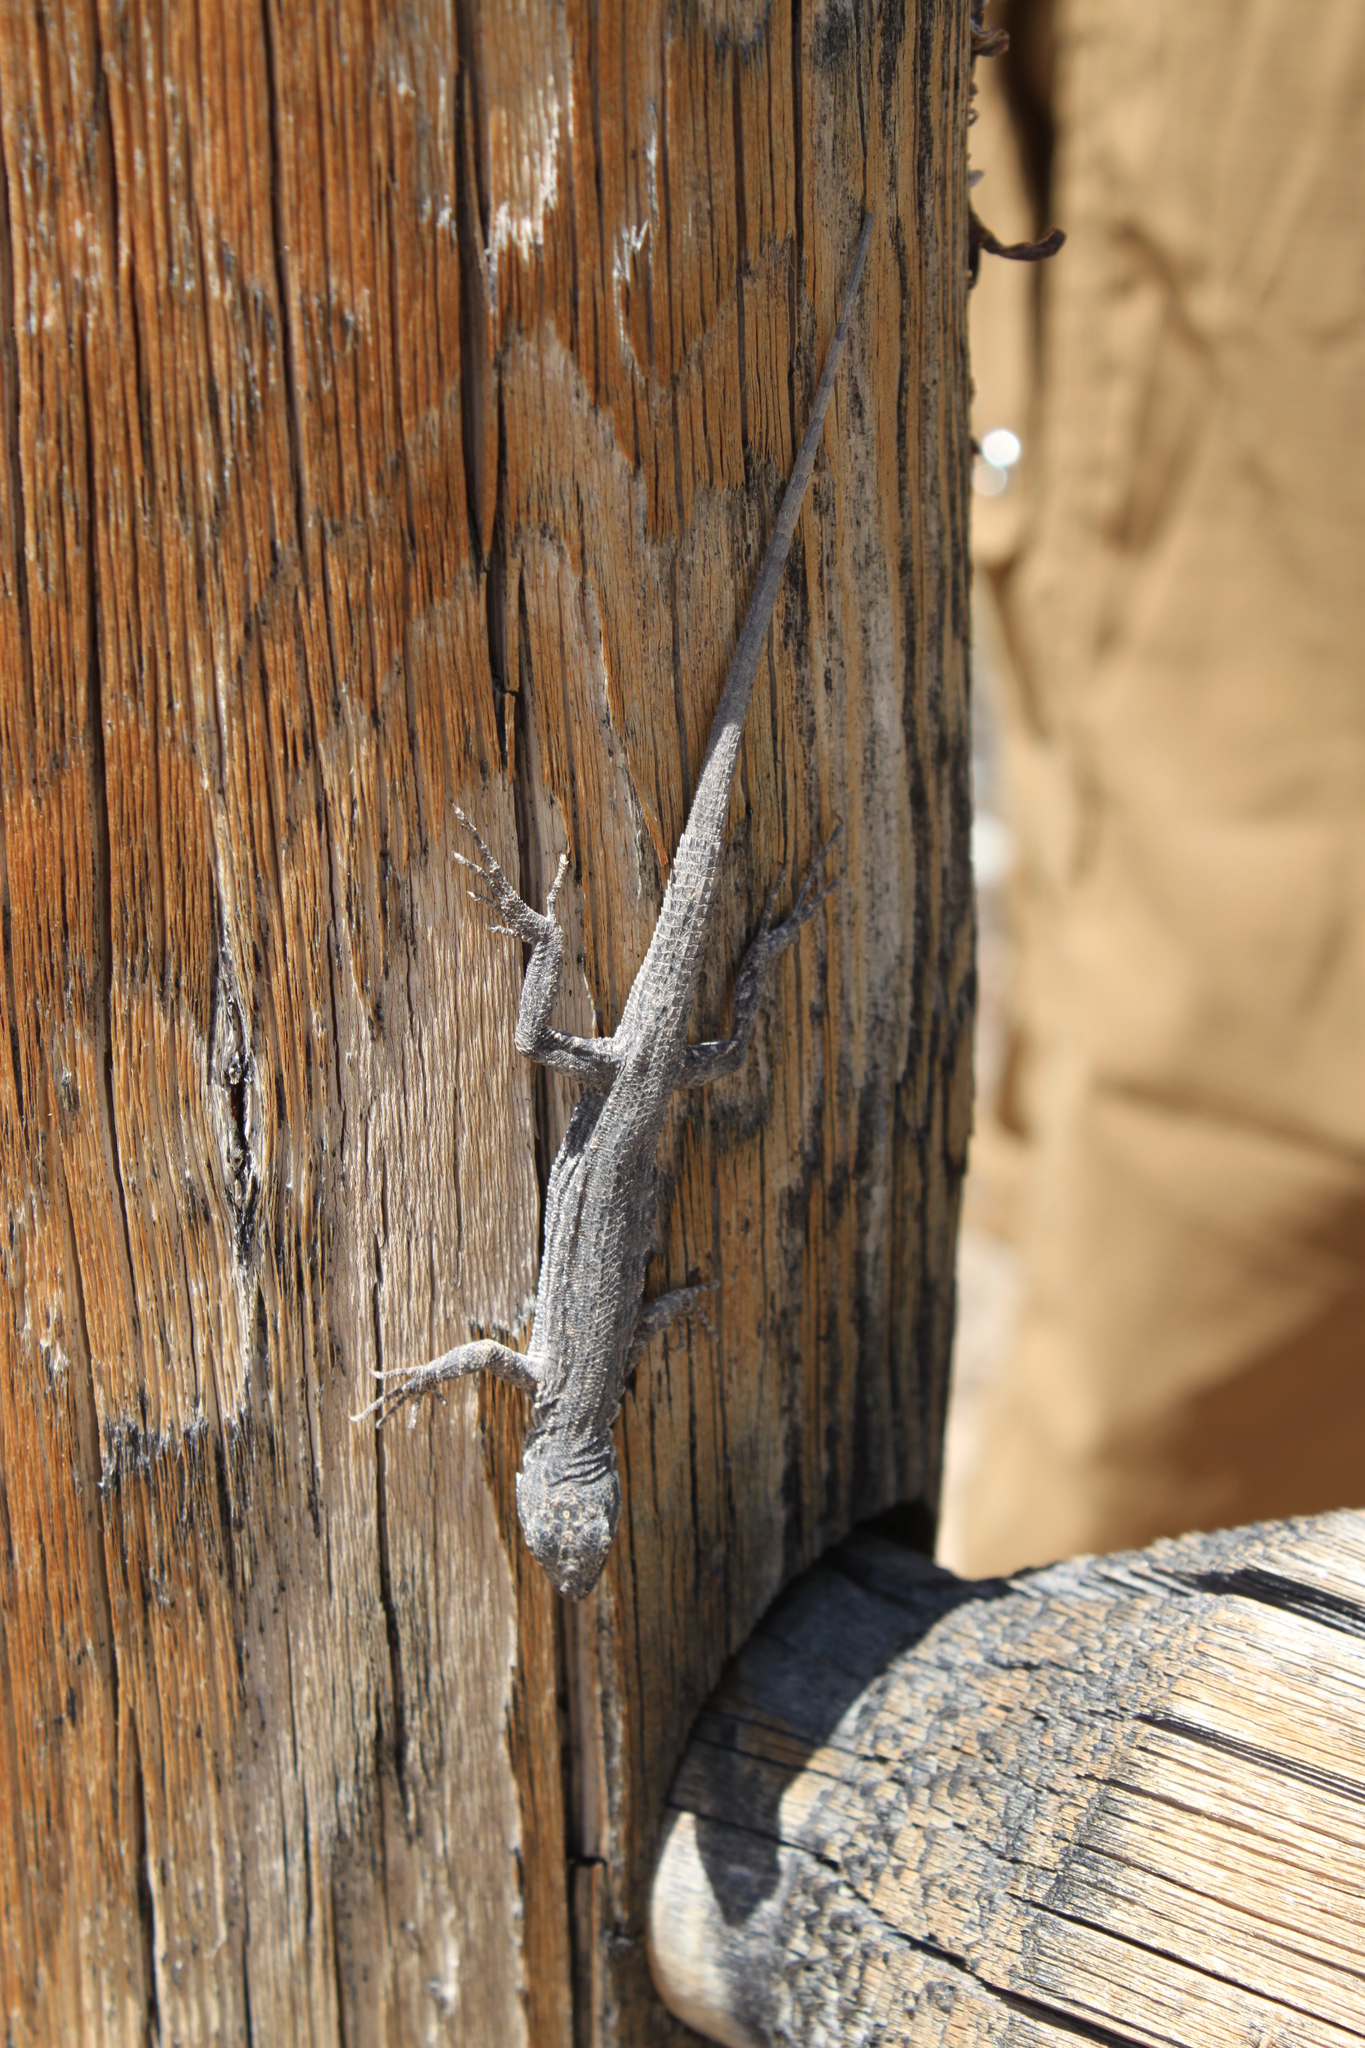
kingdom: Animalia
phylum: Chordata
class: Squamata
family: Phrynosomatidae
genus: Urosaurus
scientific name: Urosaurus graciosus
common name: Long-tailed brush lizard
